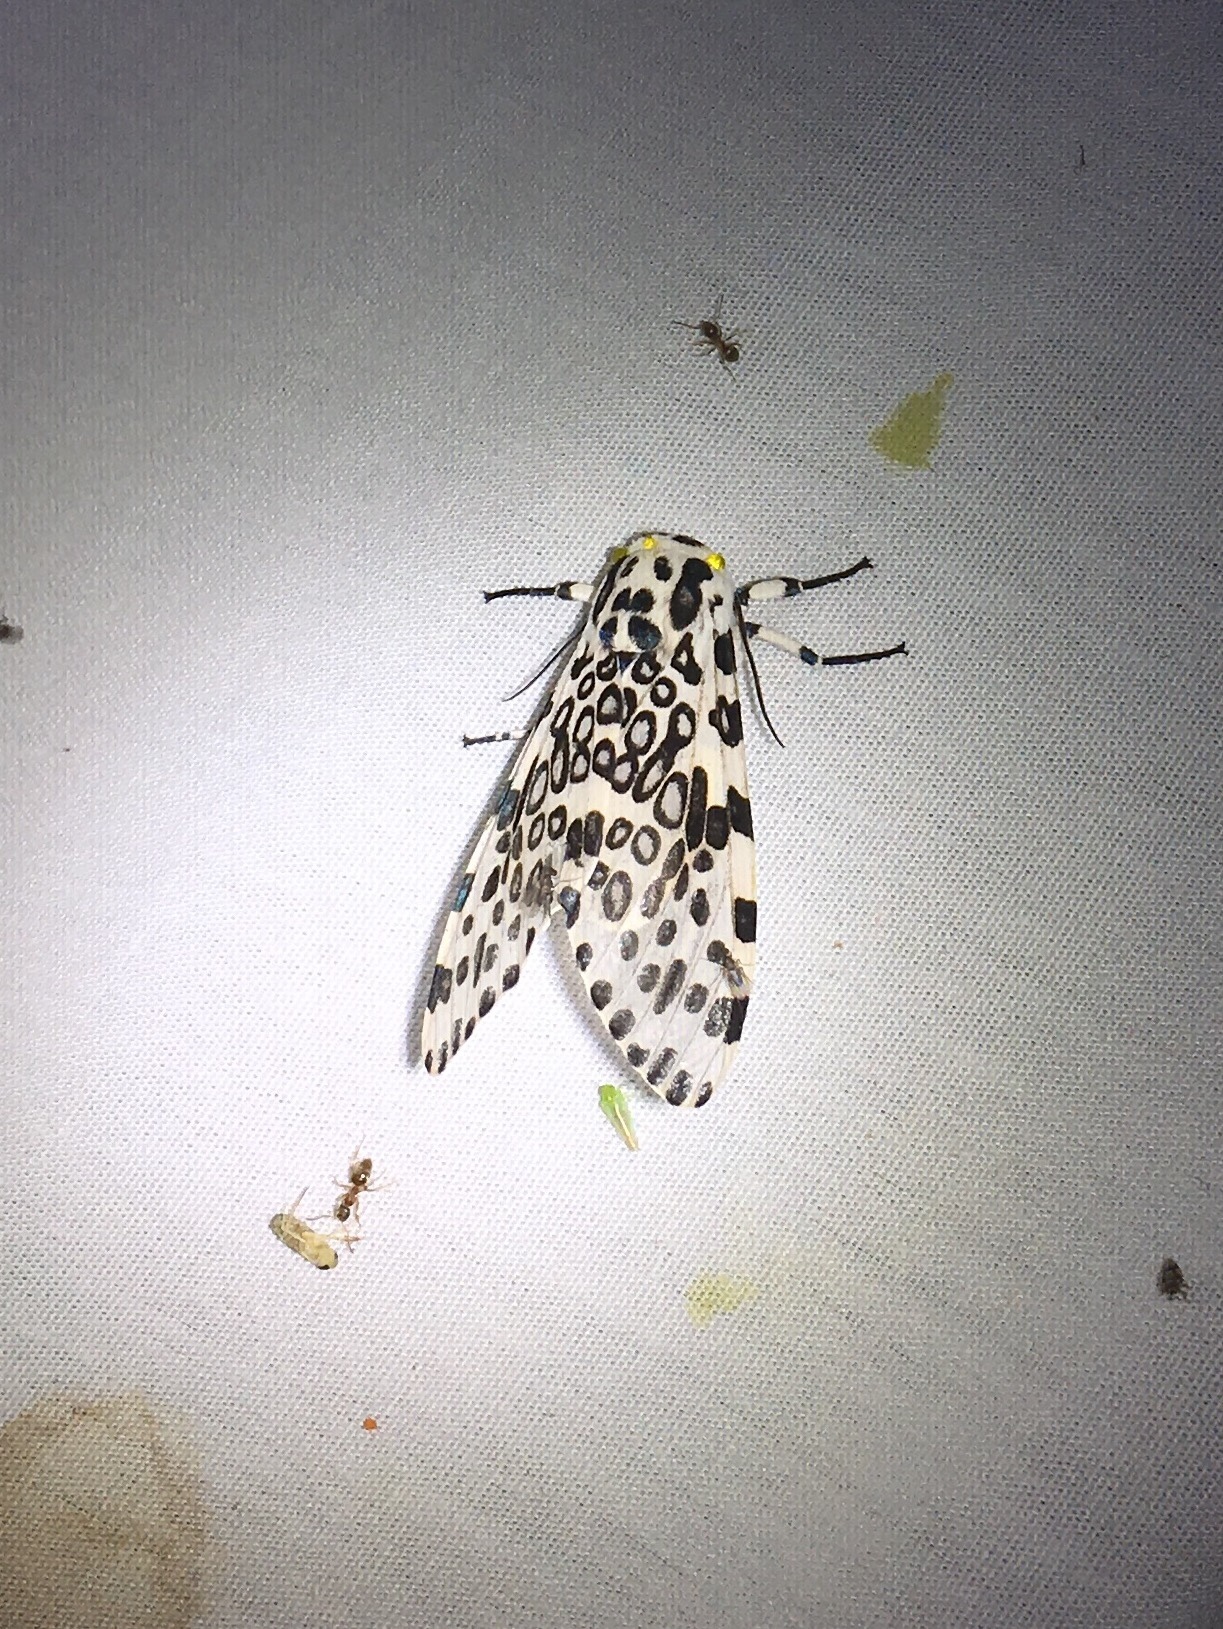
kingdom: Animalia
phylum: Arthropoda
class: Insecta
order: Lepidoptera
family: Erebidae
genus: Hypercompe
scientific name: Hypercompe scribonia
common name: Giant leopard moth
